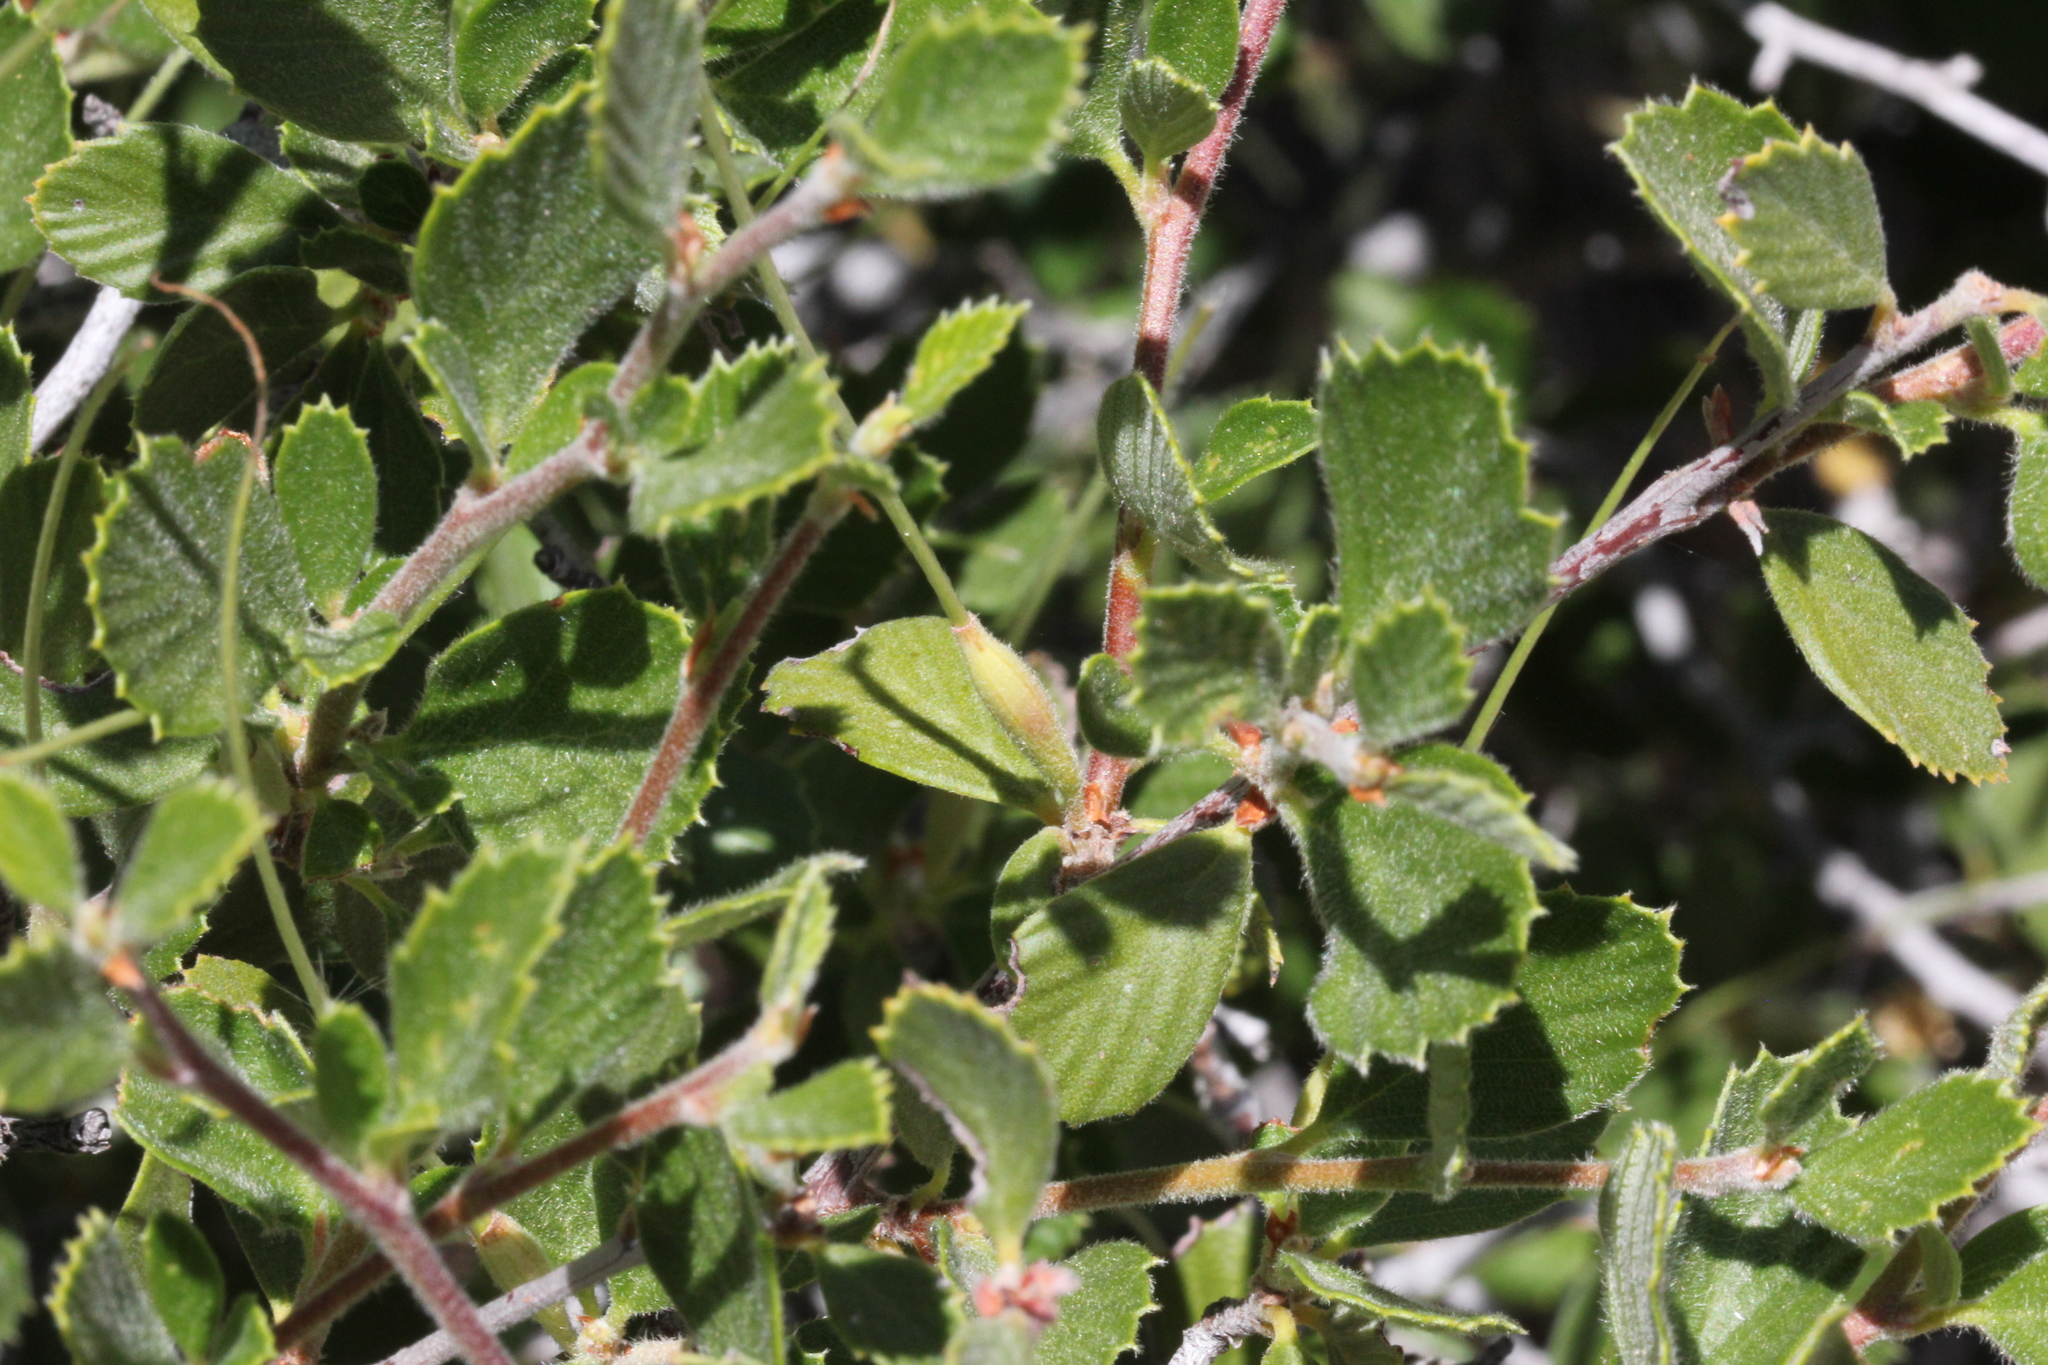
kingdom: Plantae
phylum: Tracheophyta
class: Magnoliopsida
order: Rosales
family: Rosaceae
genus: Cercocarpus
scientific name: Cercocarpus betuloides
